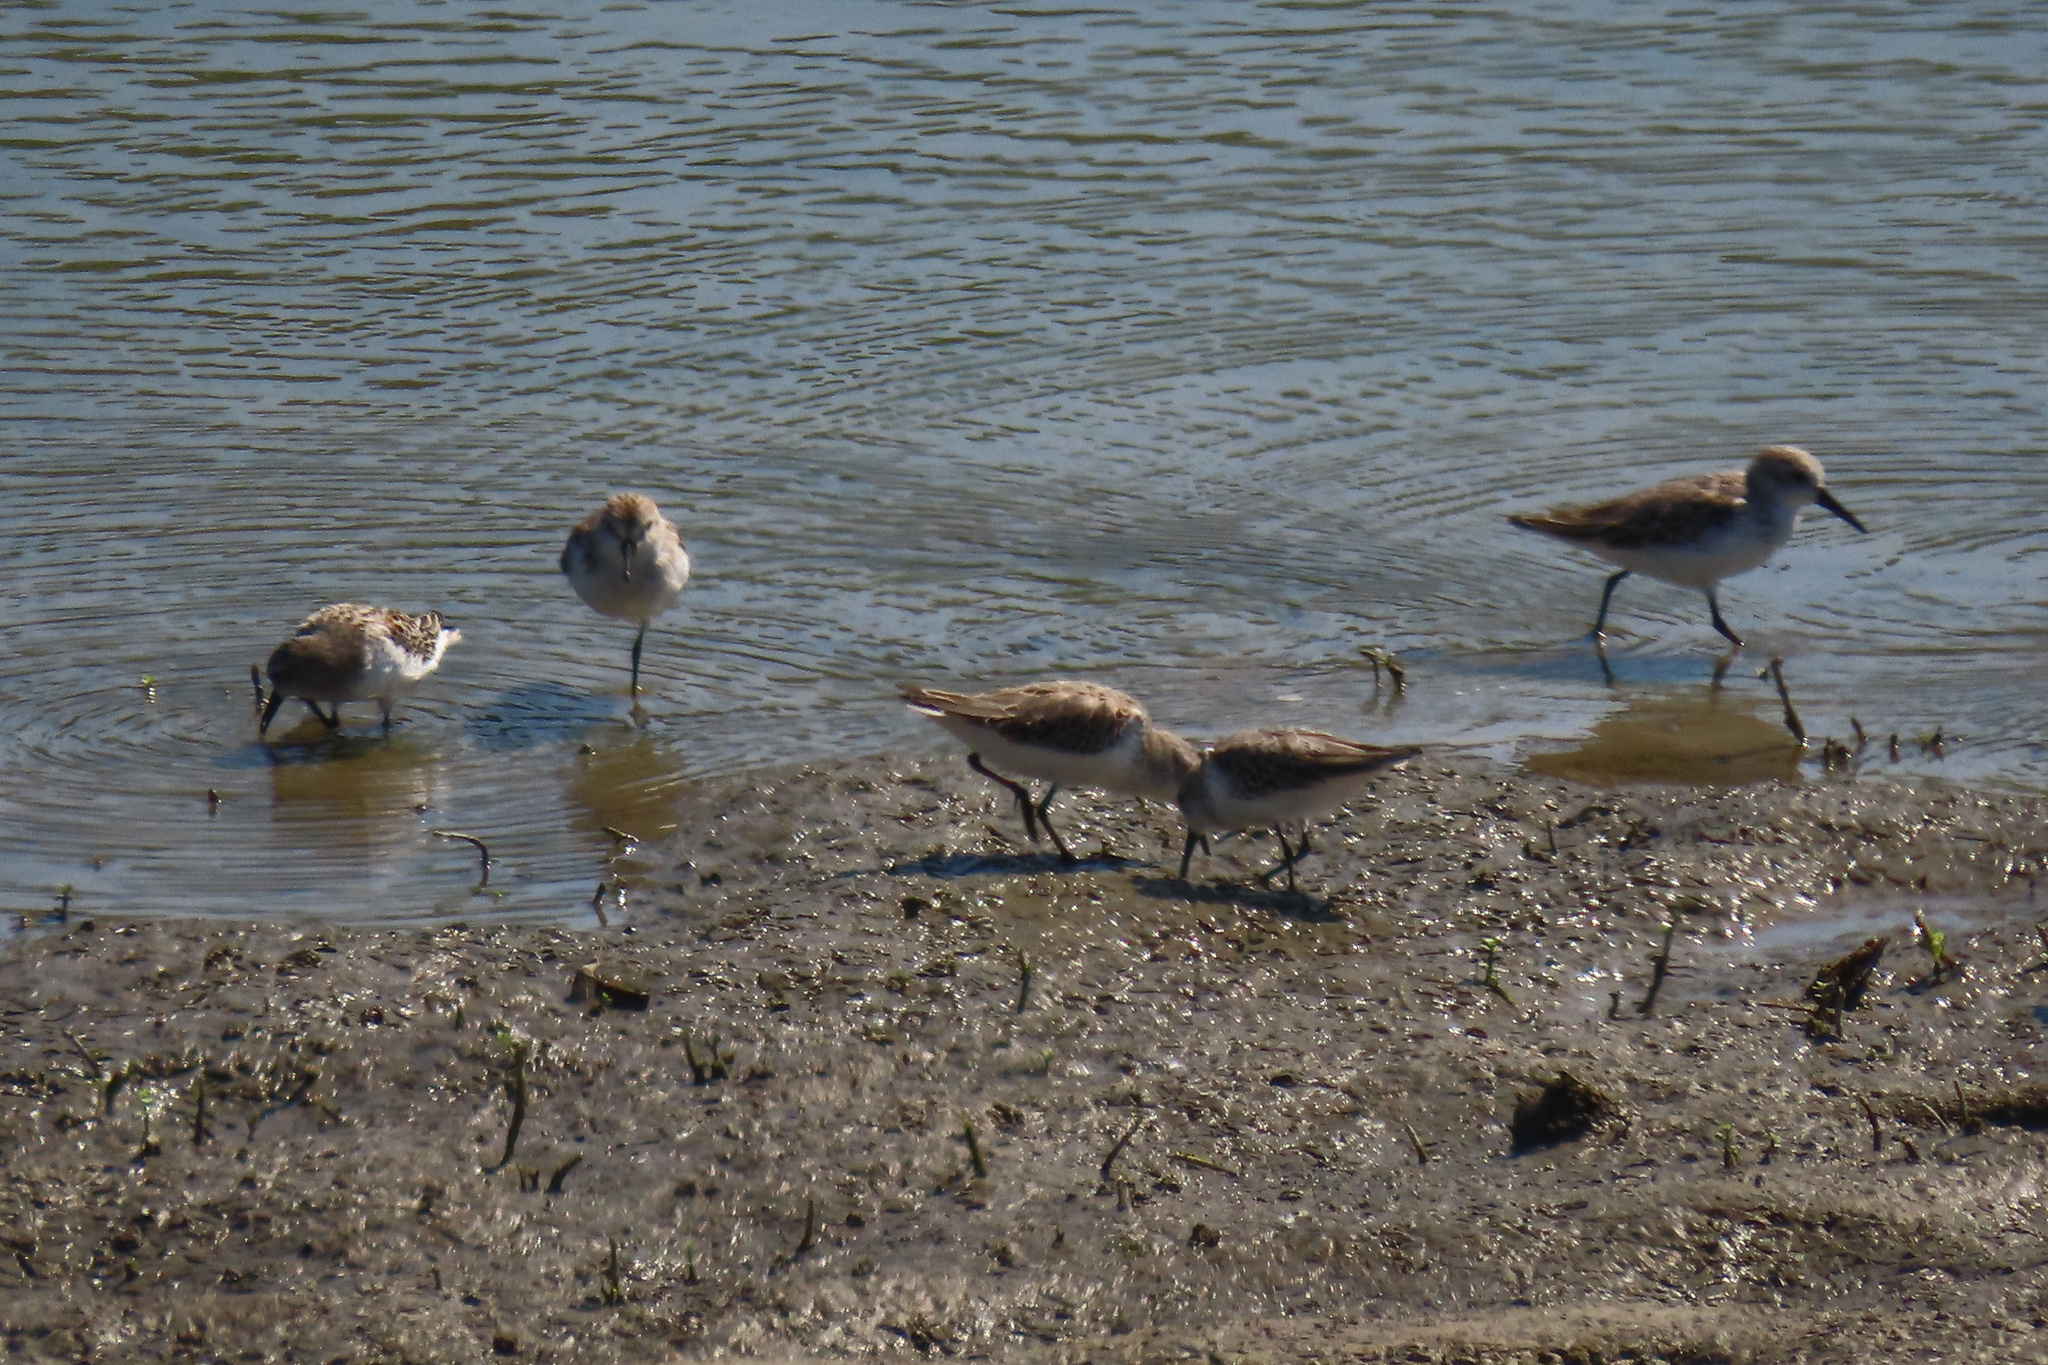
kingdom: Animalia
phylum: Chordata
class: Aves
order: Charadriiformes
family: Scolopacidae
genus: Calidris
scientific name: Calidris mauri
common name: Western sandpiper
